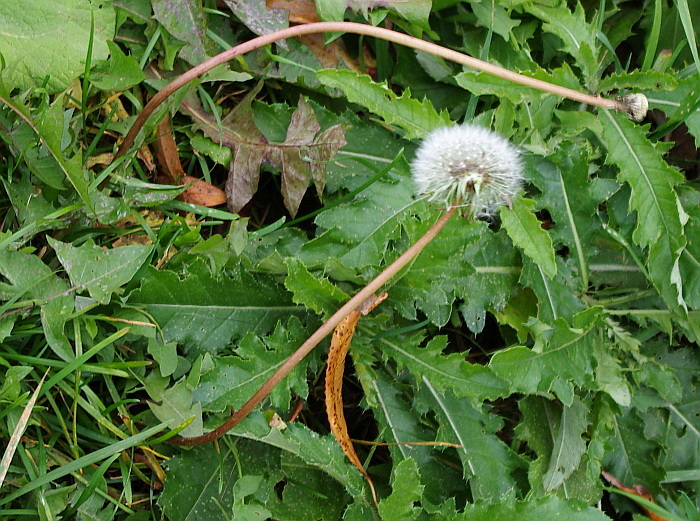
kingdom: Plantae
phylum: Tracheophyta
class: Magnoliopsida
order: Asterales
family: Asteraceae
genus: Taraxacum
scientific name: Taraxacum officinale
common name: Common dandelion
